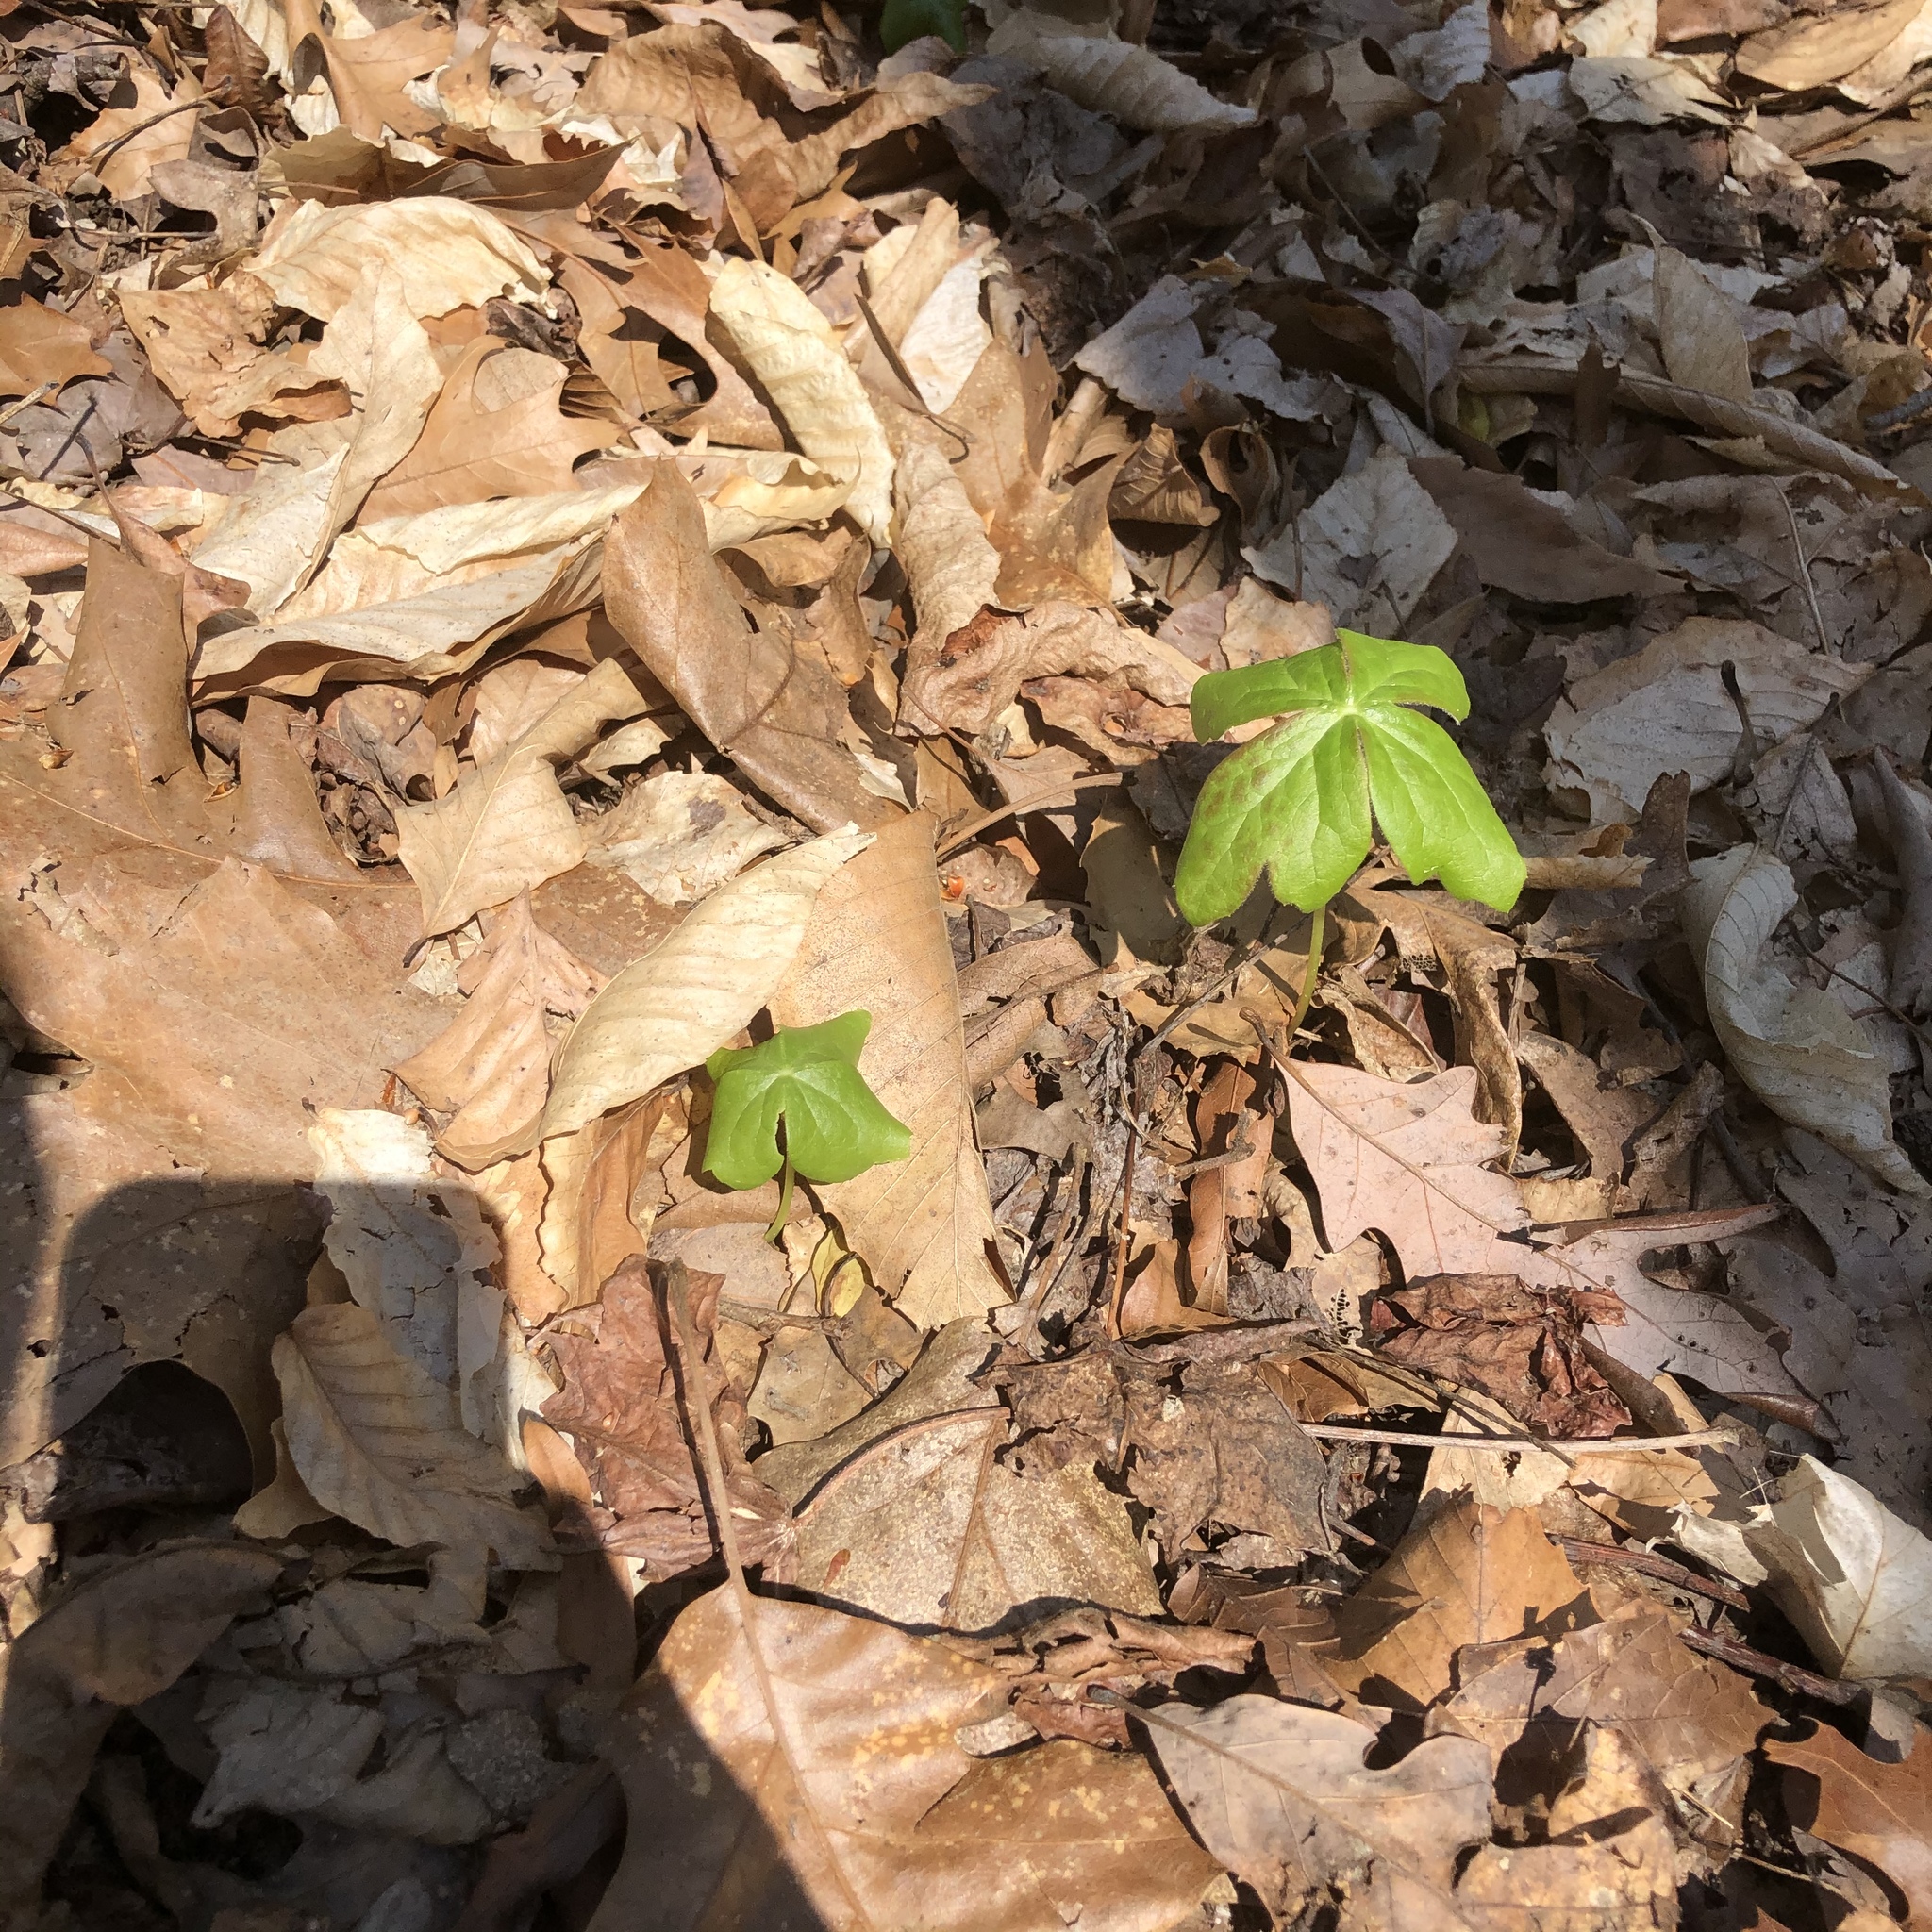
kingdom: Plantae
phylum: Tracheophyta
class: Magnoliopsida
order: Ranunculales
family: Berberidaceae
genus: Podophyllum
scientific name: Podophyllum peltatum
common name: Wild mandrake
